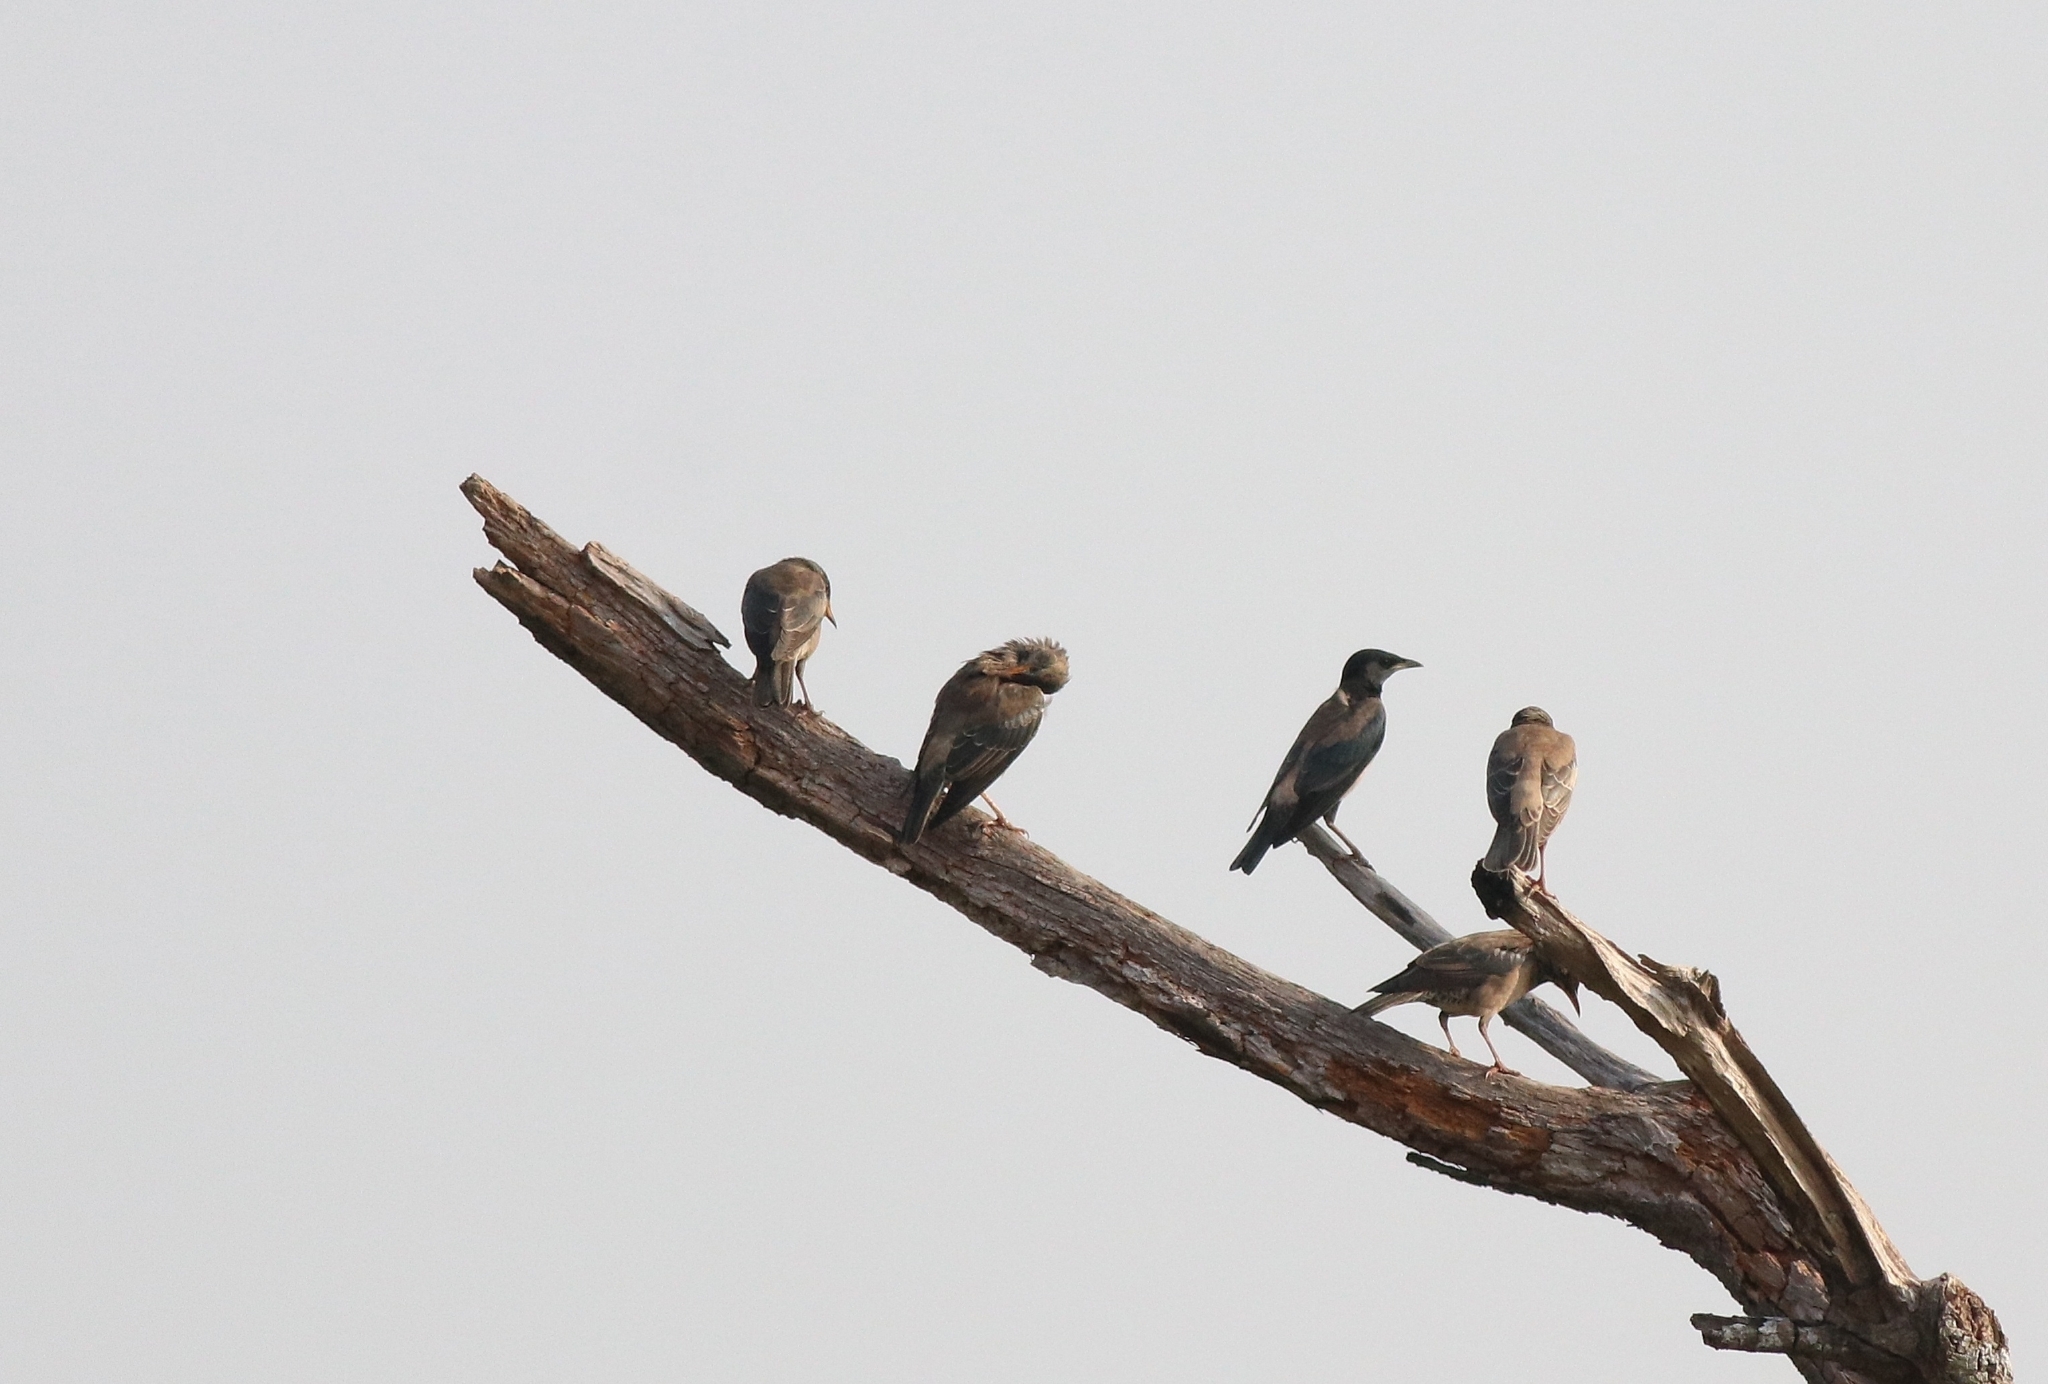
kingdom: Animalia
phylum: Chordata
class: Aves
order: Passeriformes
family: Sturnidae
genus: Pastor
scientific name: Pastor roseus
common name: Rosy starling
